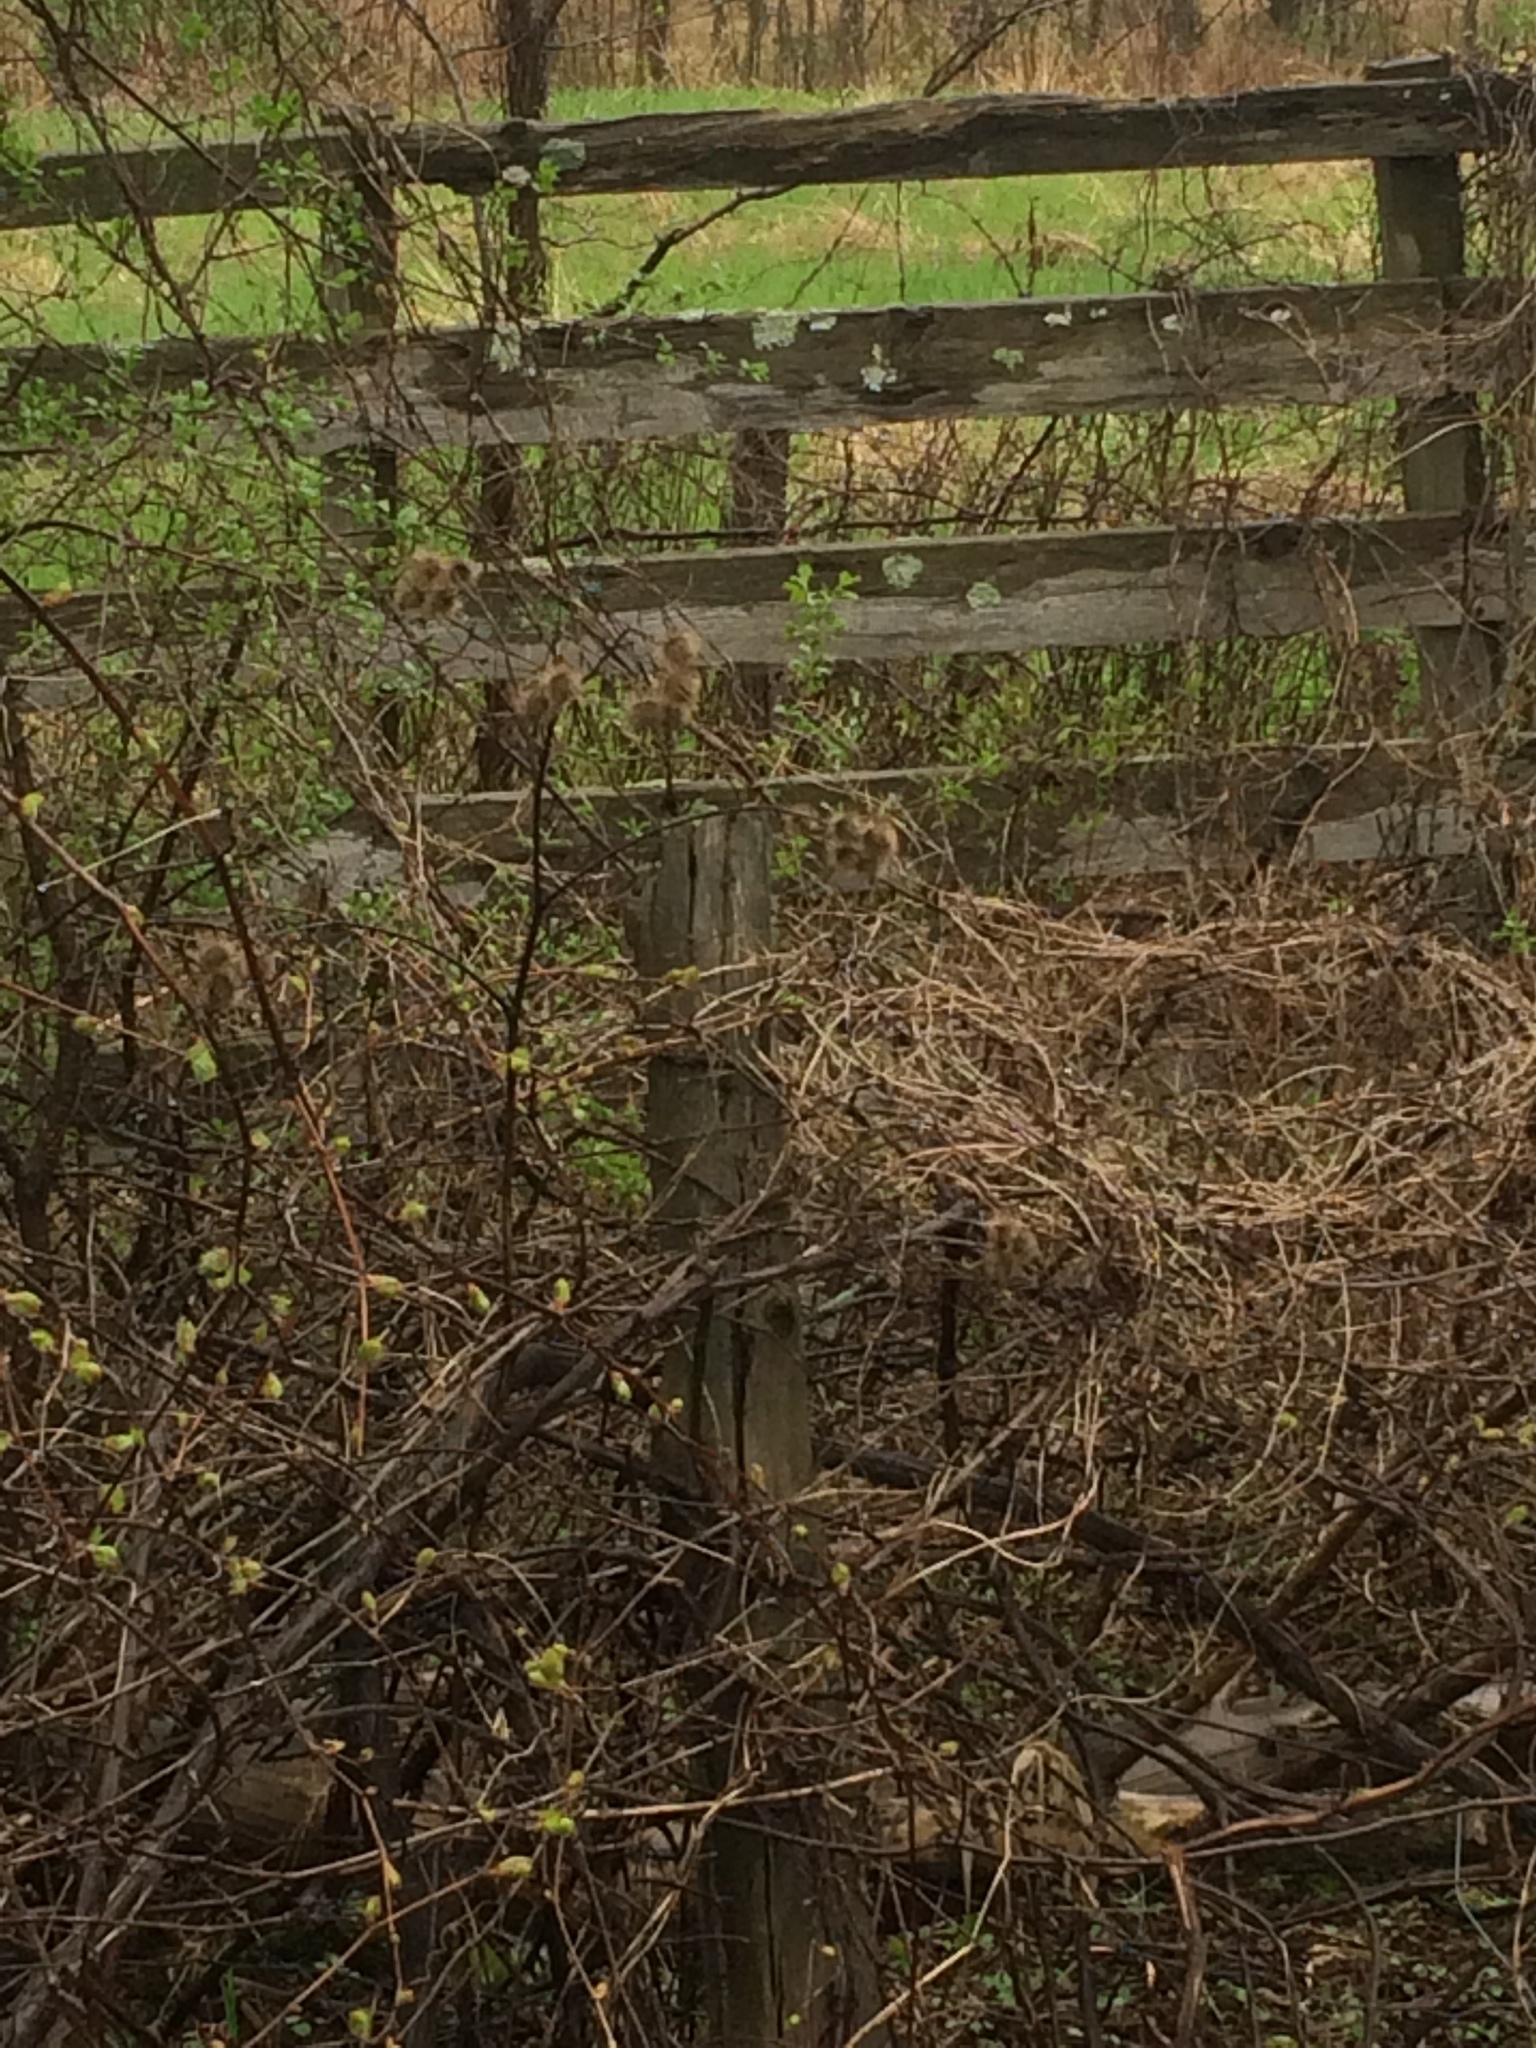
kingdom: Plantae
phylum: Tracheophyta
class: Magnoliopsida
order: Asterales
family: Asteraceae
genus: Arctium
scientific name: Arctium lappa
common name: Greater burdock
